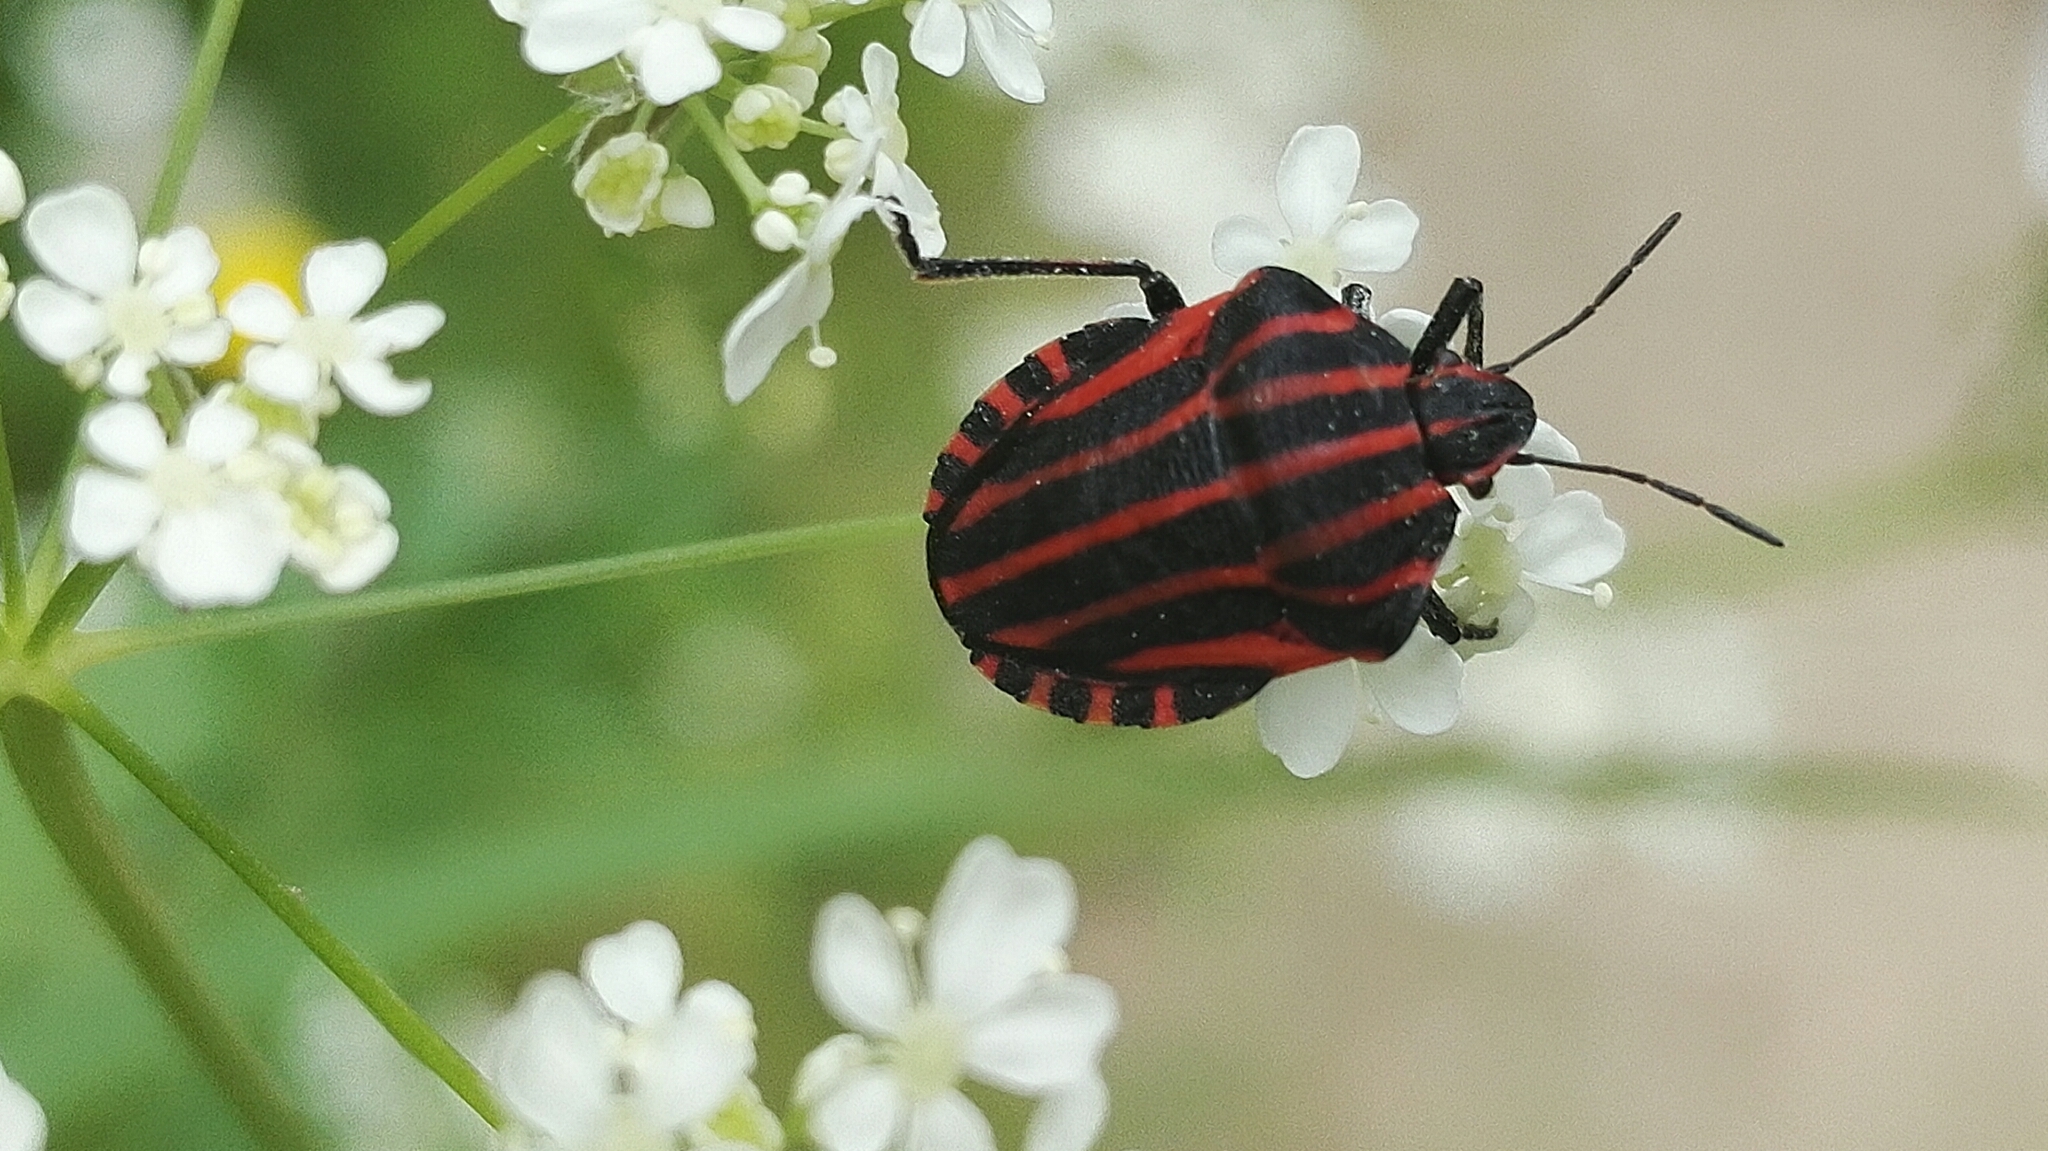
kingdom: Animalia
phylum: Arthropoda
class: Insecta
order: Hemiptera
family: Pentatomidae
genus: Graphosoma
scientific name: Graphosoma italicum
